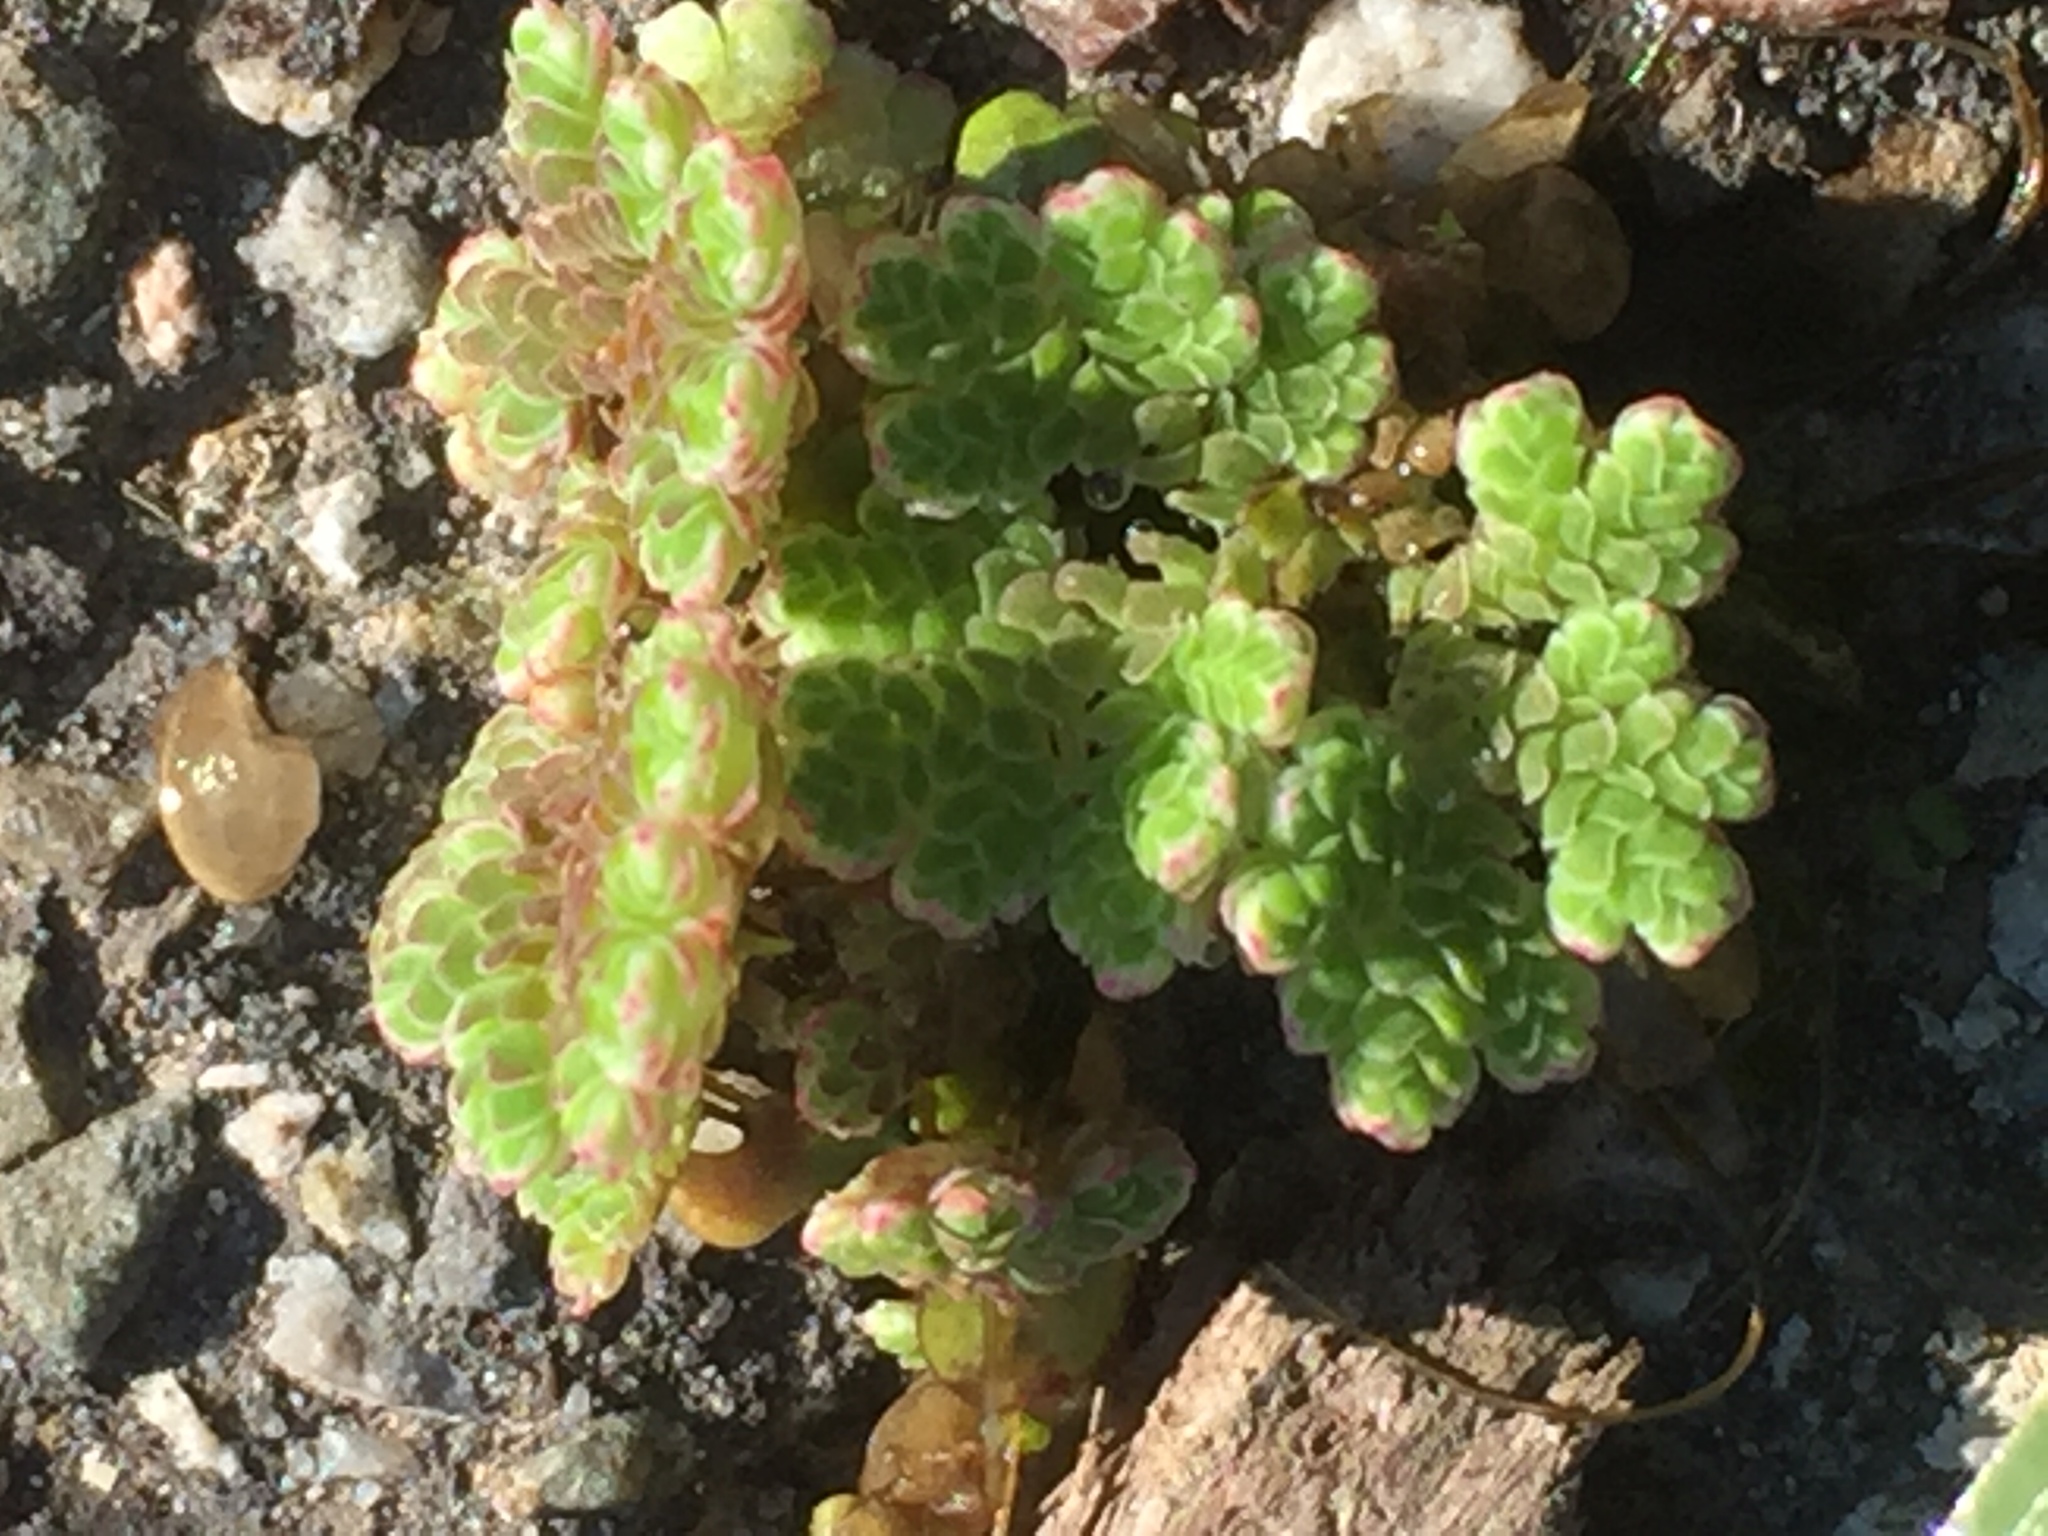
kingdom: Plantae
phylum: Tracheophyta
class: Polypodiopsida
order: Salviniales
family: Salviniaceae
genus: Azolla
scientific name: Azolla filiculoides
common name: Water fern
